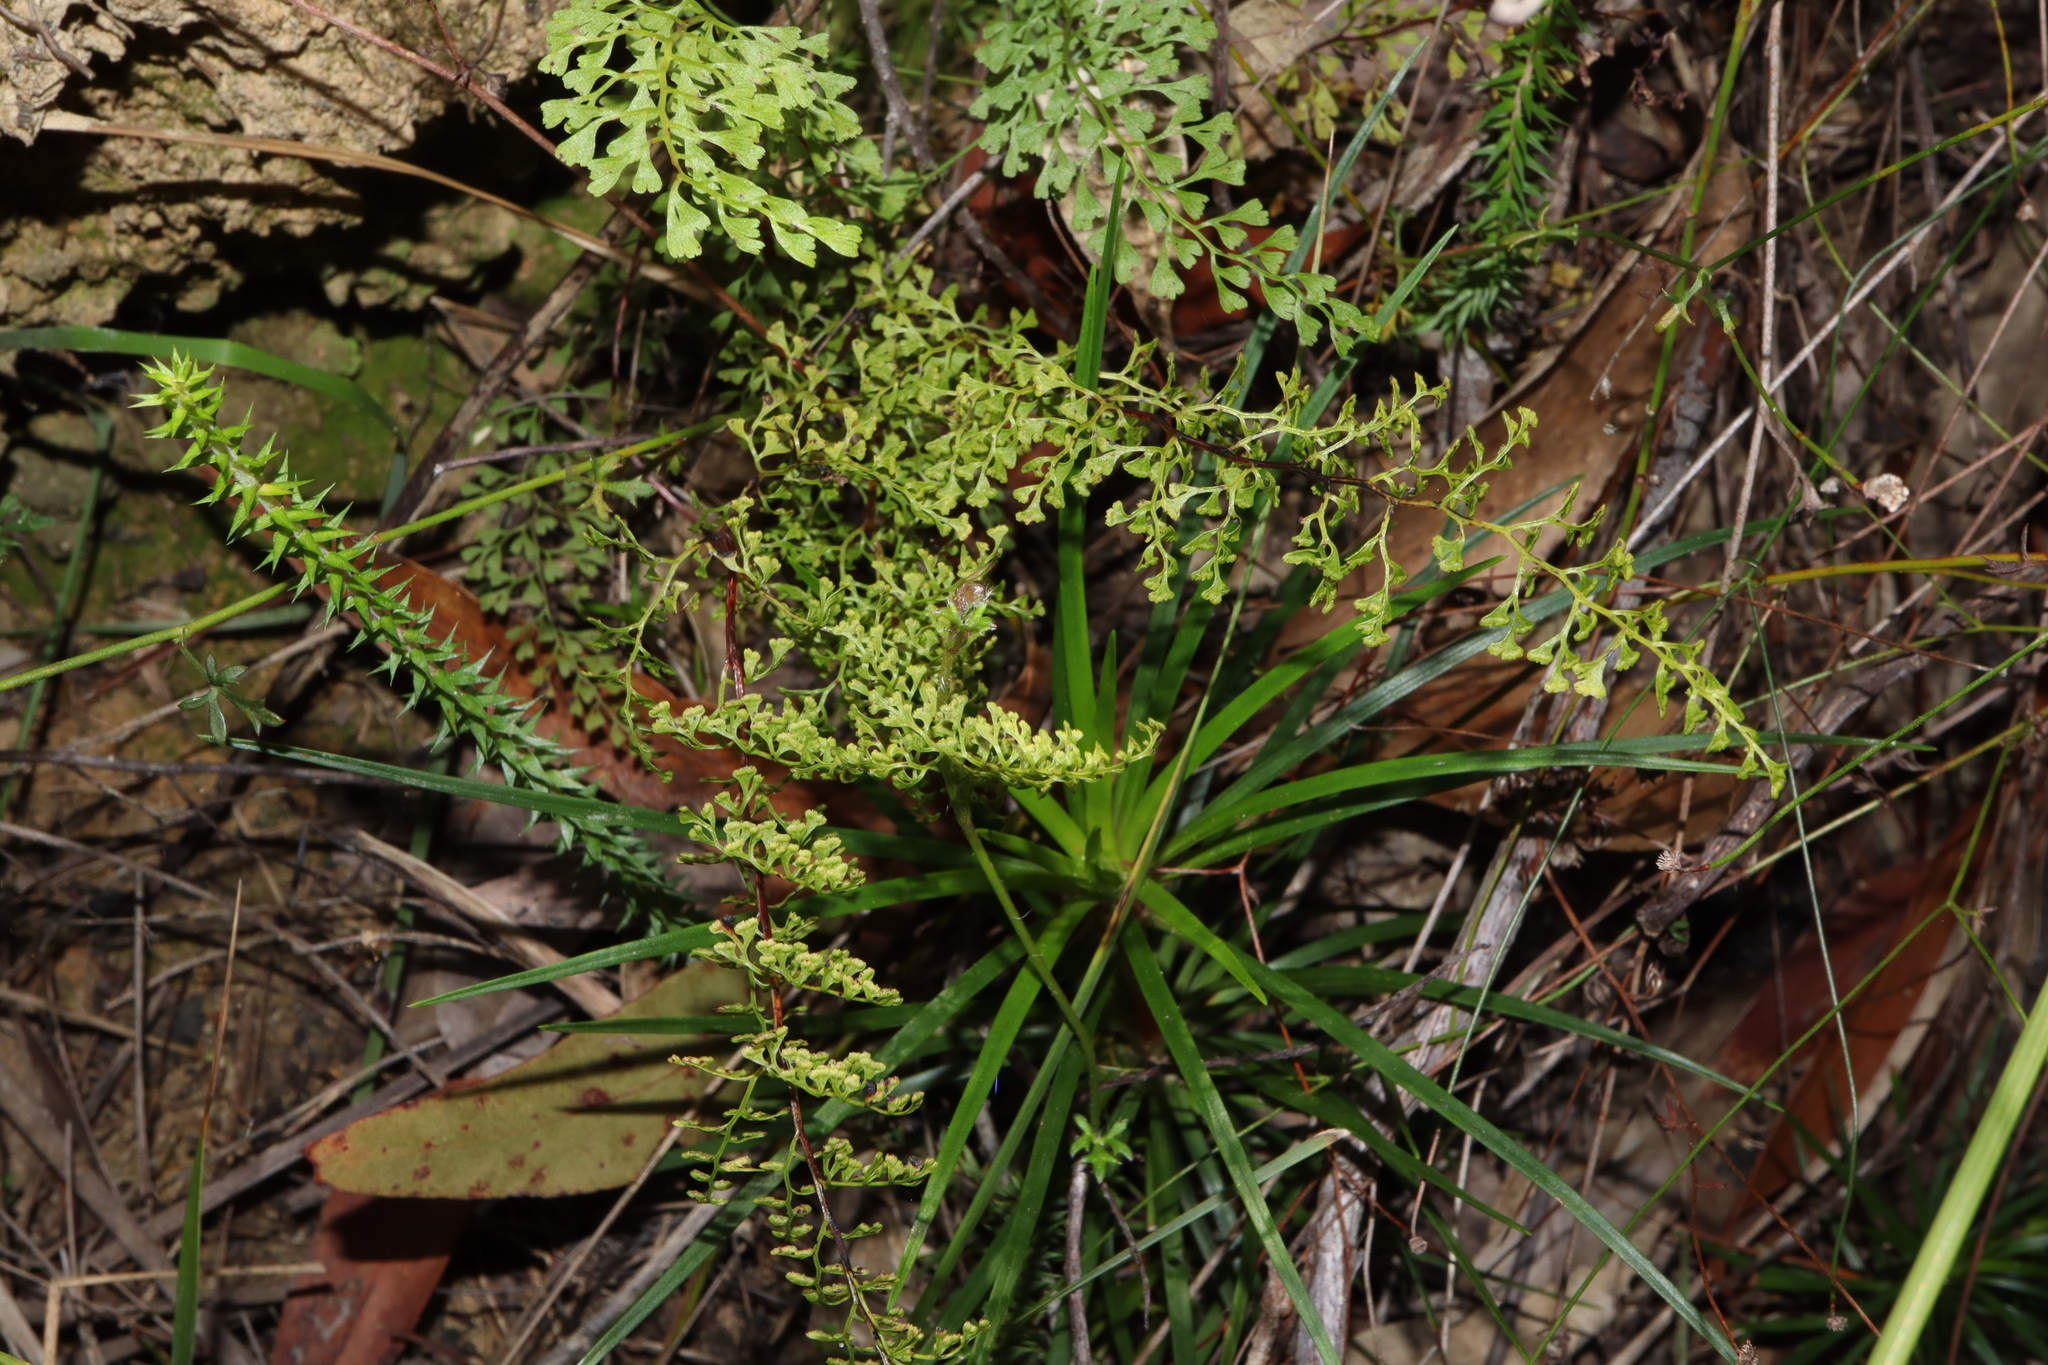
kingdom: Plantae
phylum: Tracheophyta
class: Polypodiopsida
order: Polypodiales
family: Lindsaeaceae
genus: Lindsaea
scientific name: Lindsaea microphylla
